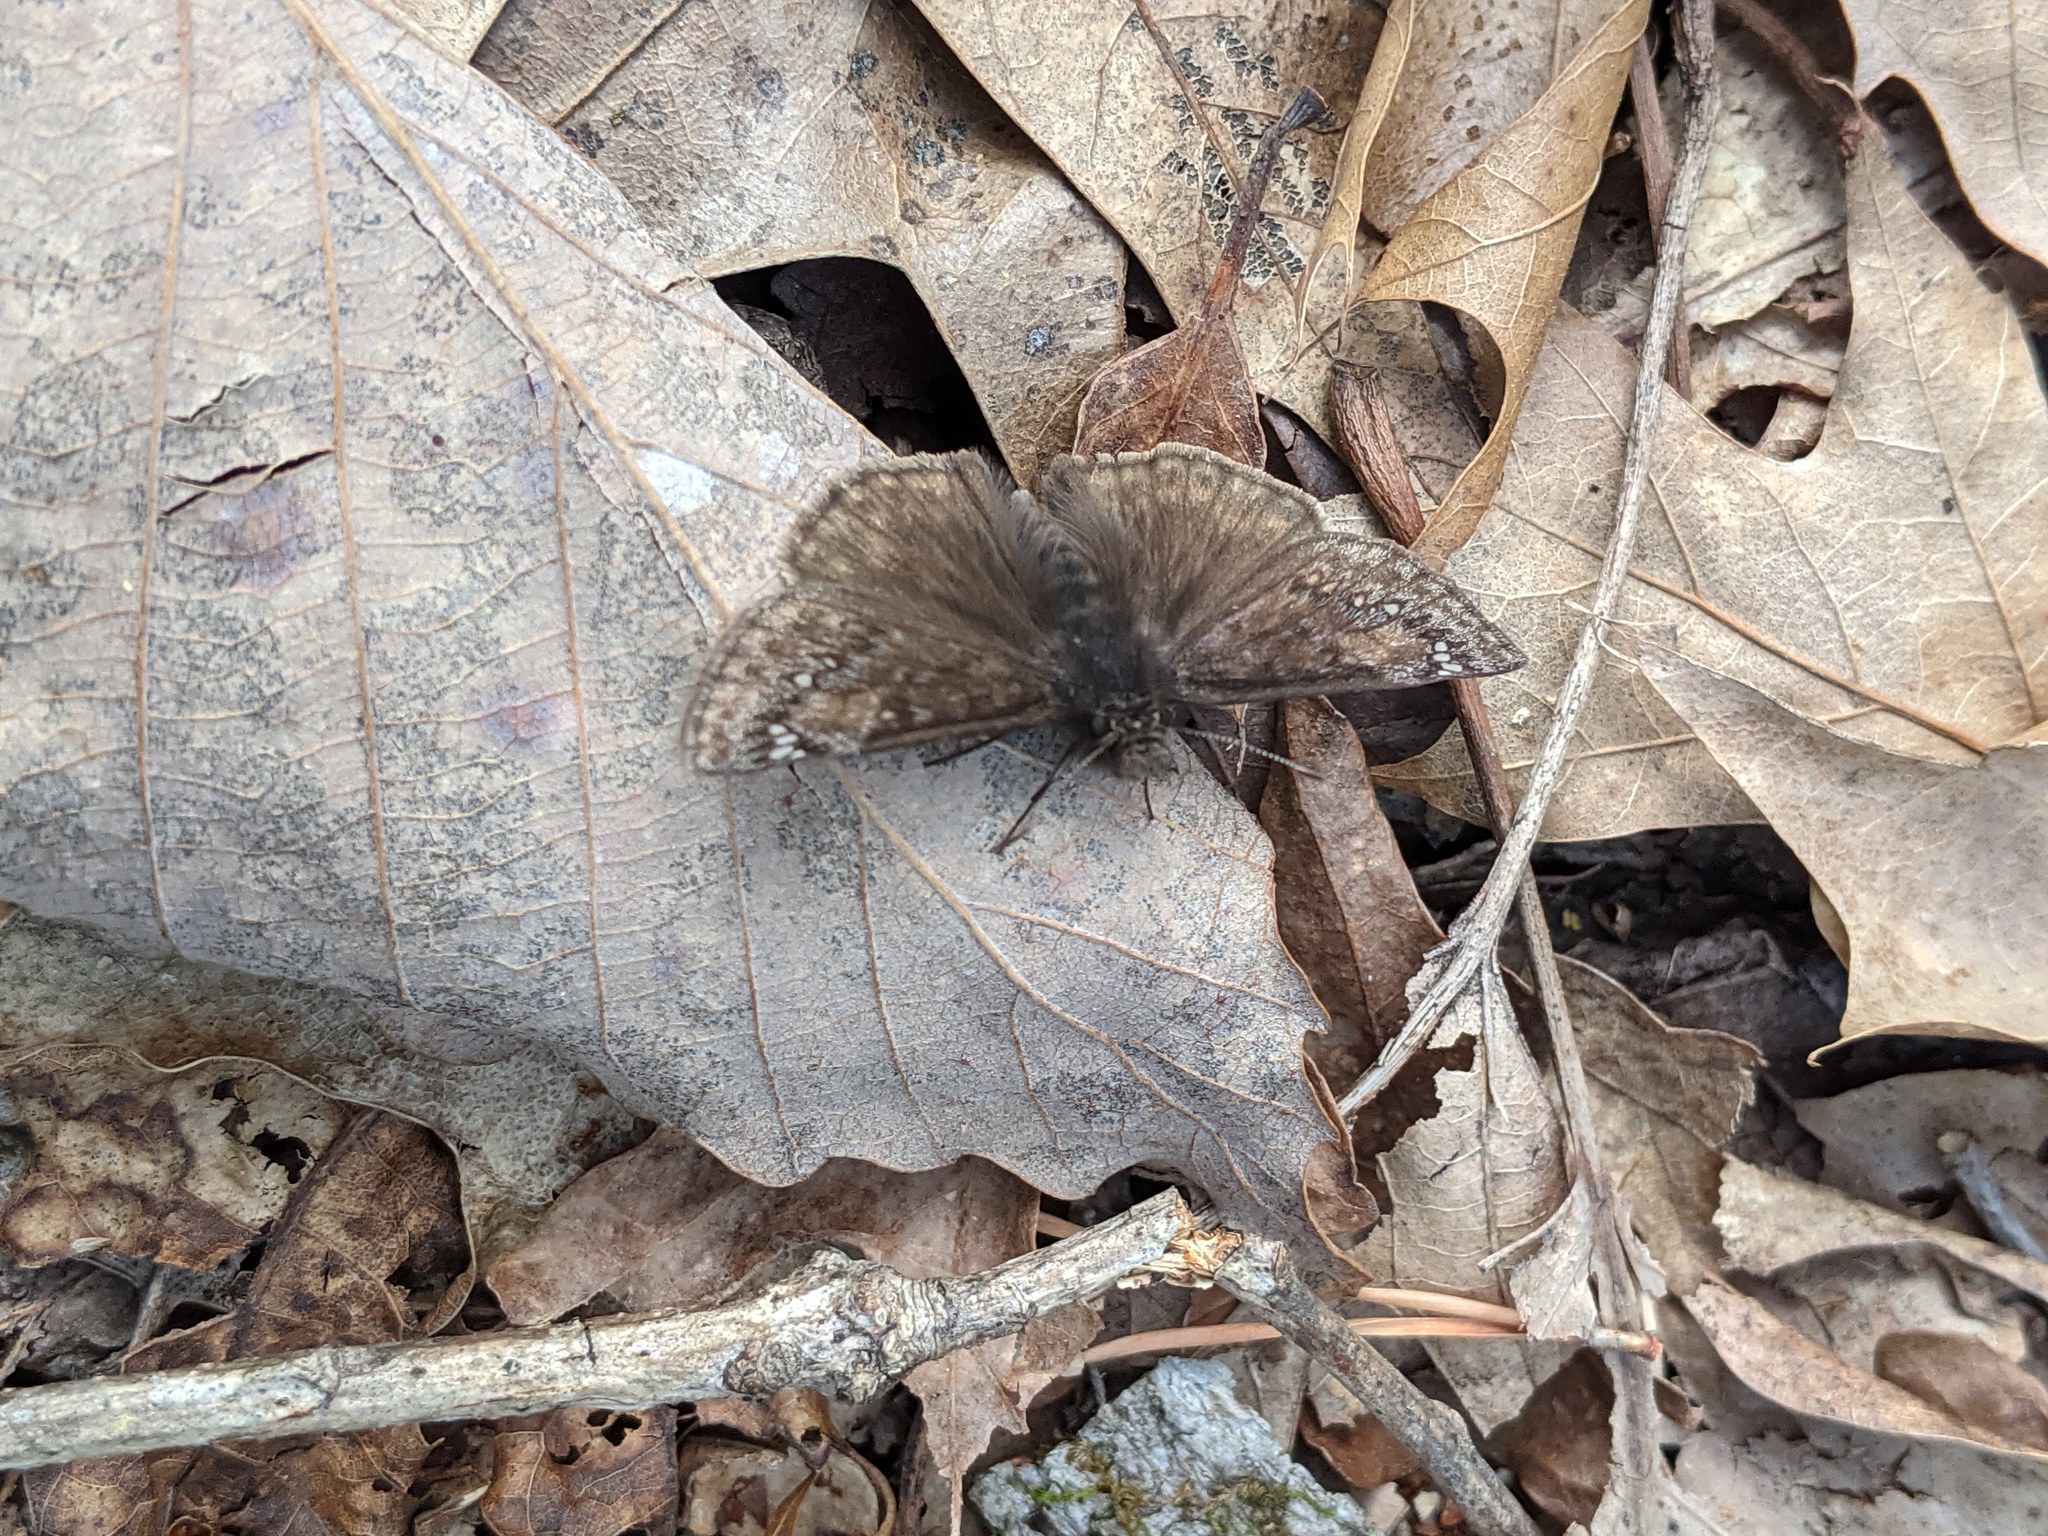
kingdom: Animalia
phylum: Arthropoda
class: Insecta
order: Lepidoptera
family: Hesperiidae
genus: Erynnis
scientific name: Erynnis juvenalis
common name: Juvenal's duskywing
